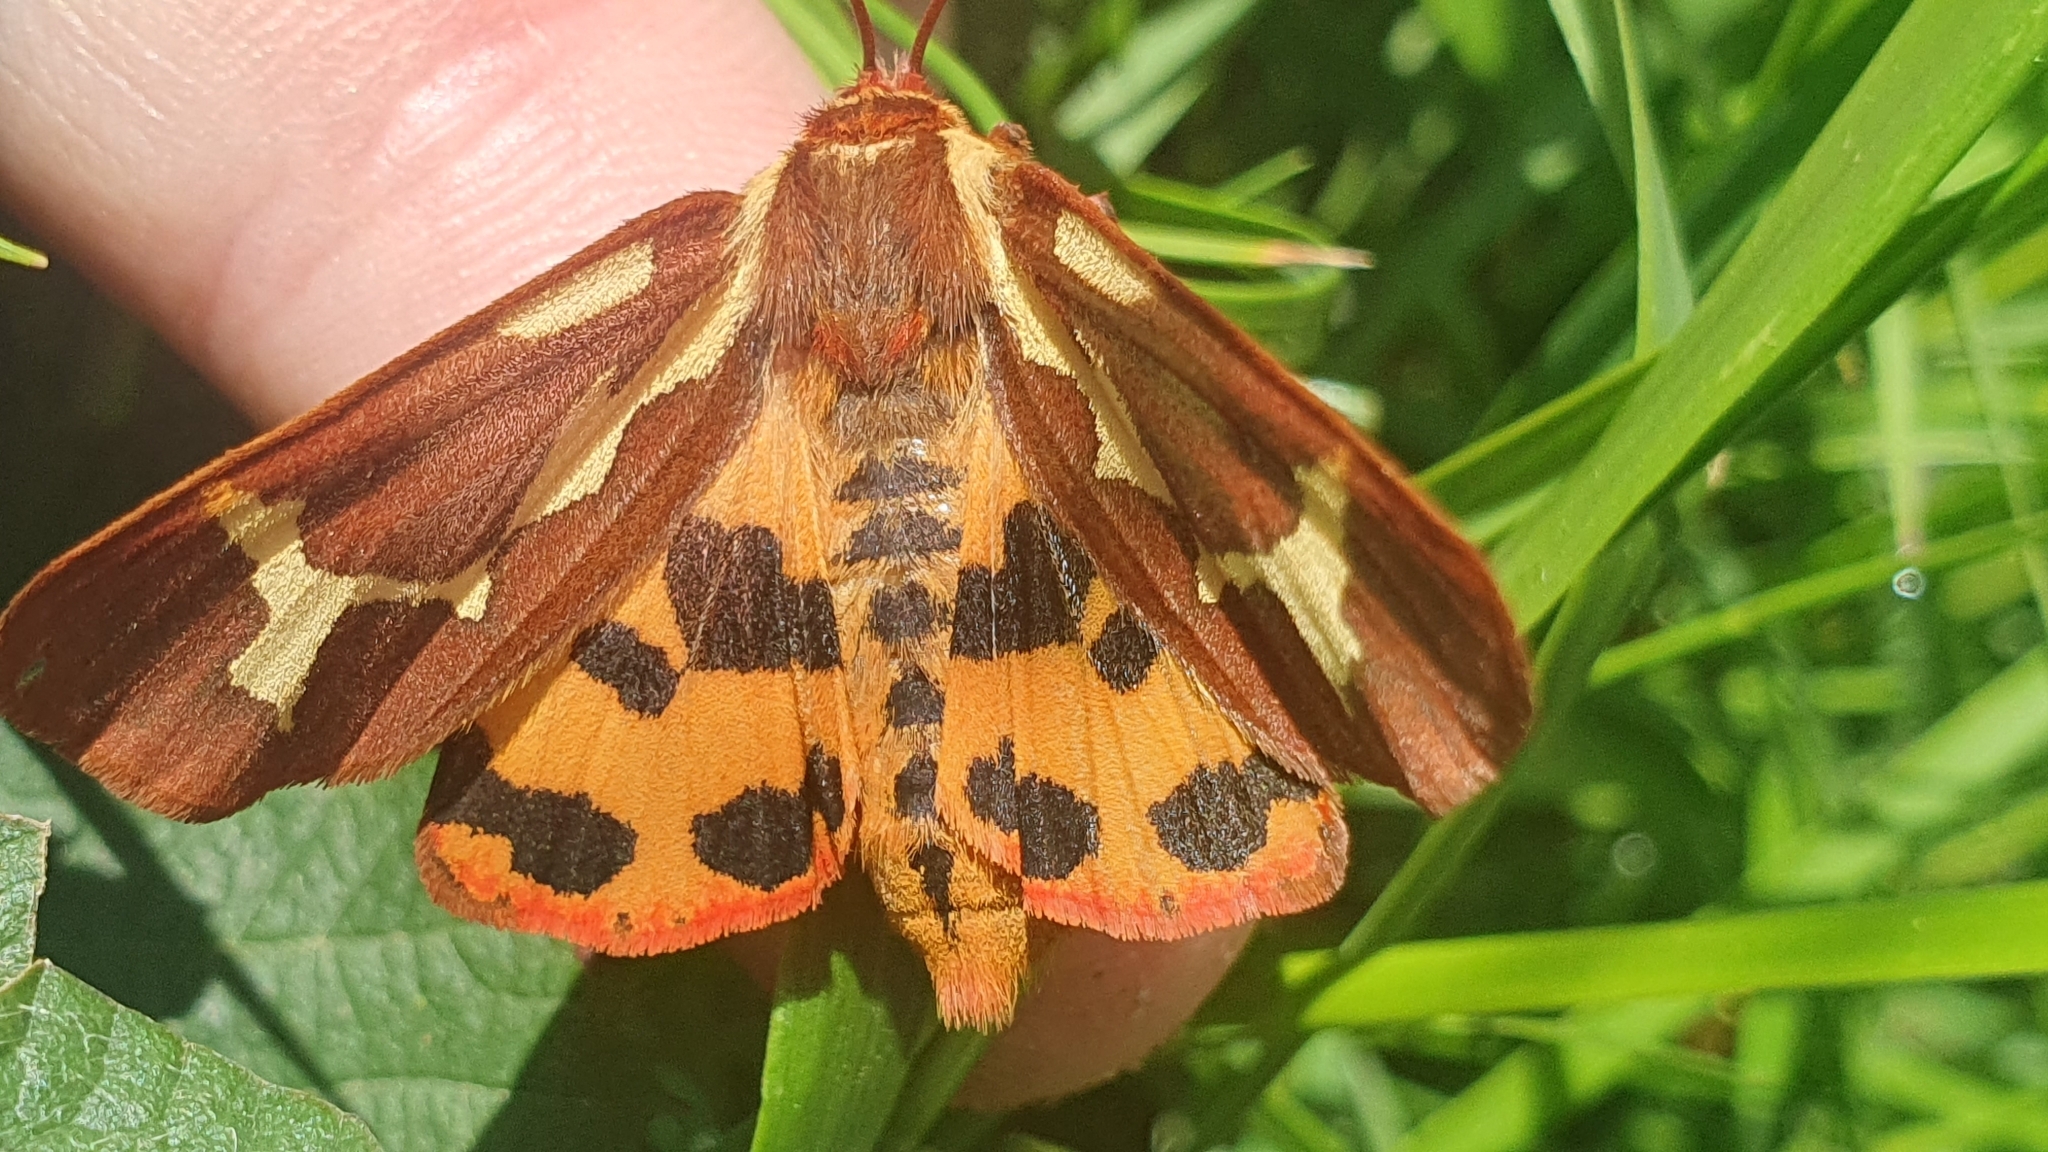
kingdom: Animalia
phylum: Arthropoda
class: Insecta
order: Lepidoptera
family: Erebidae
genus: Arctia
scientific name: Arctia dejeani
